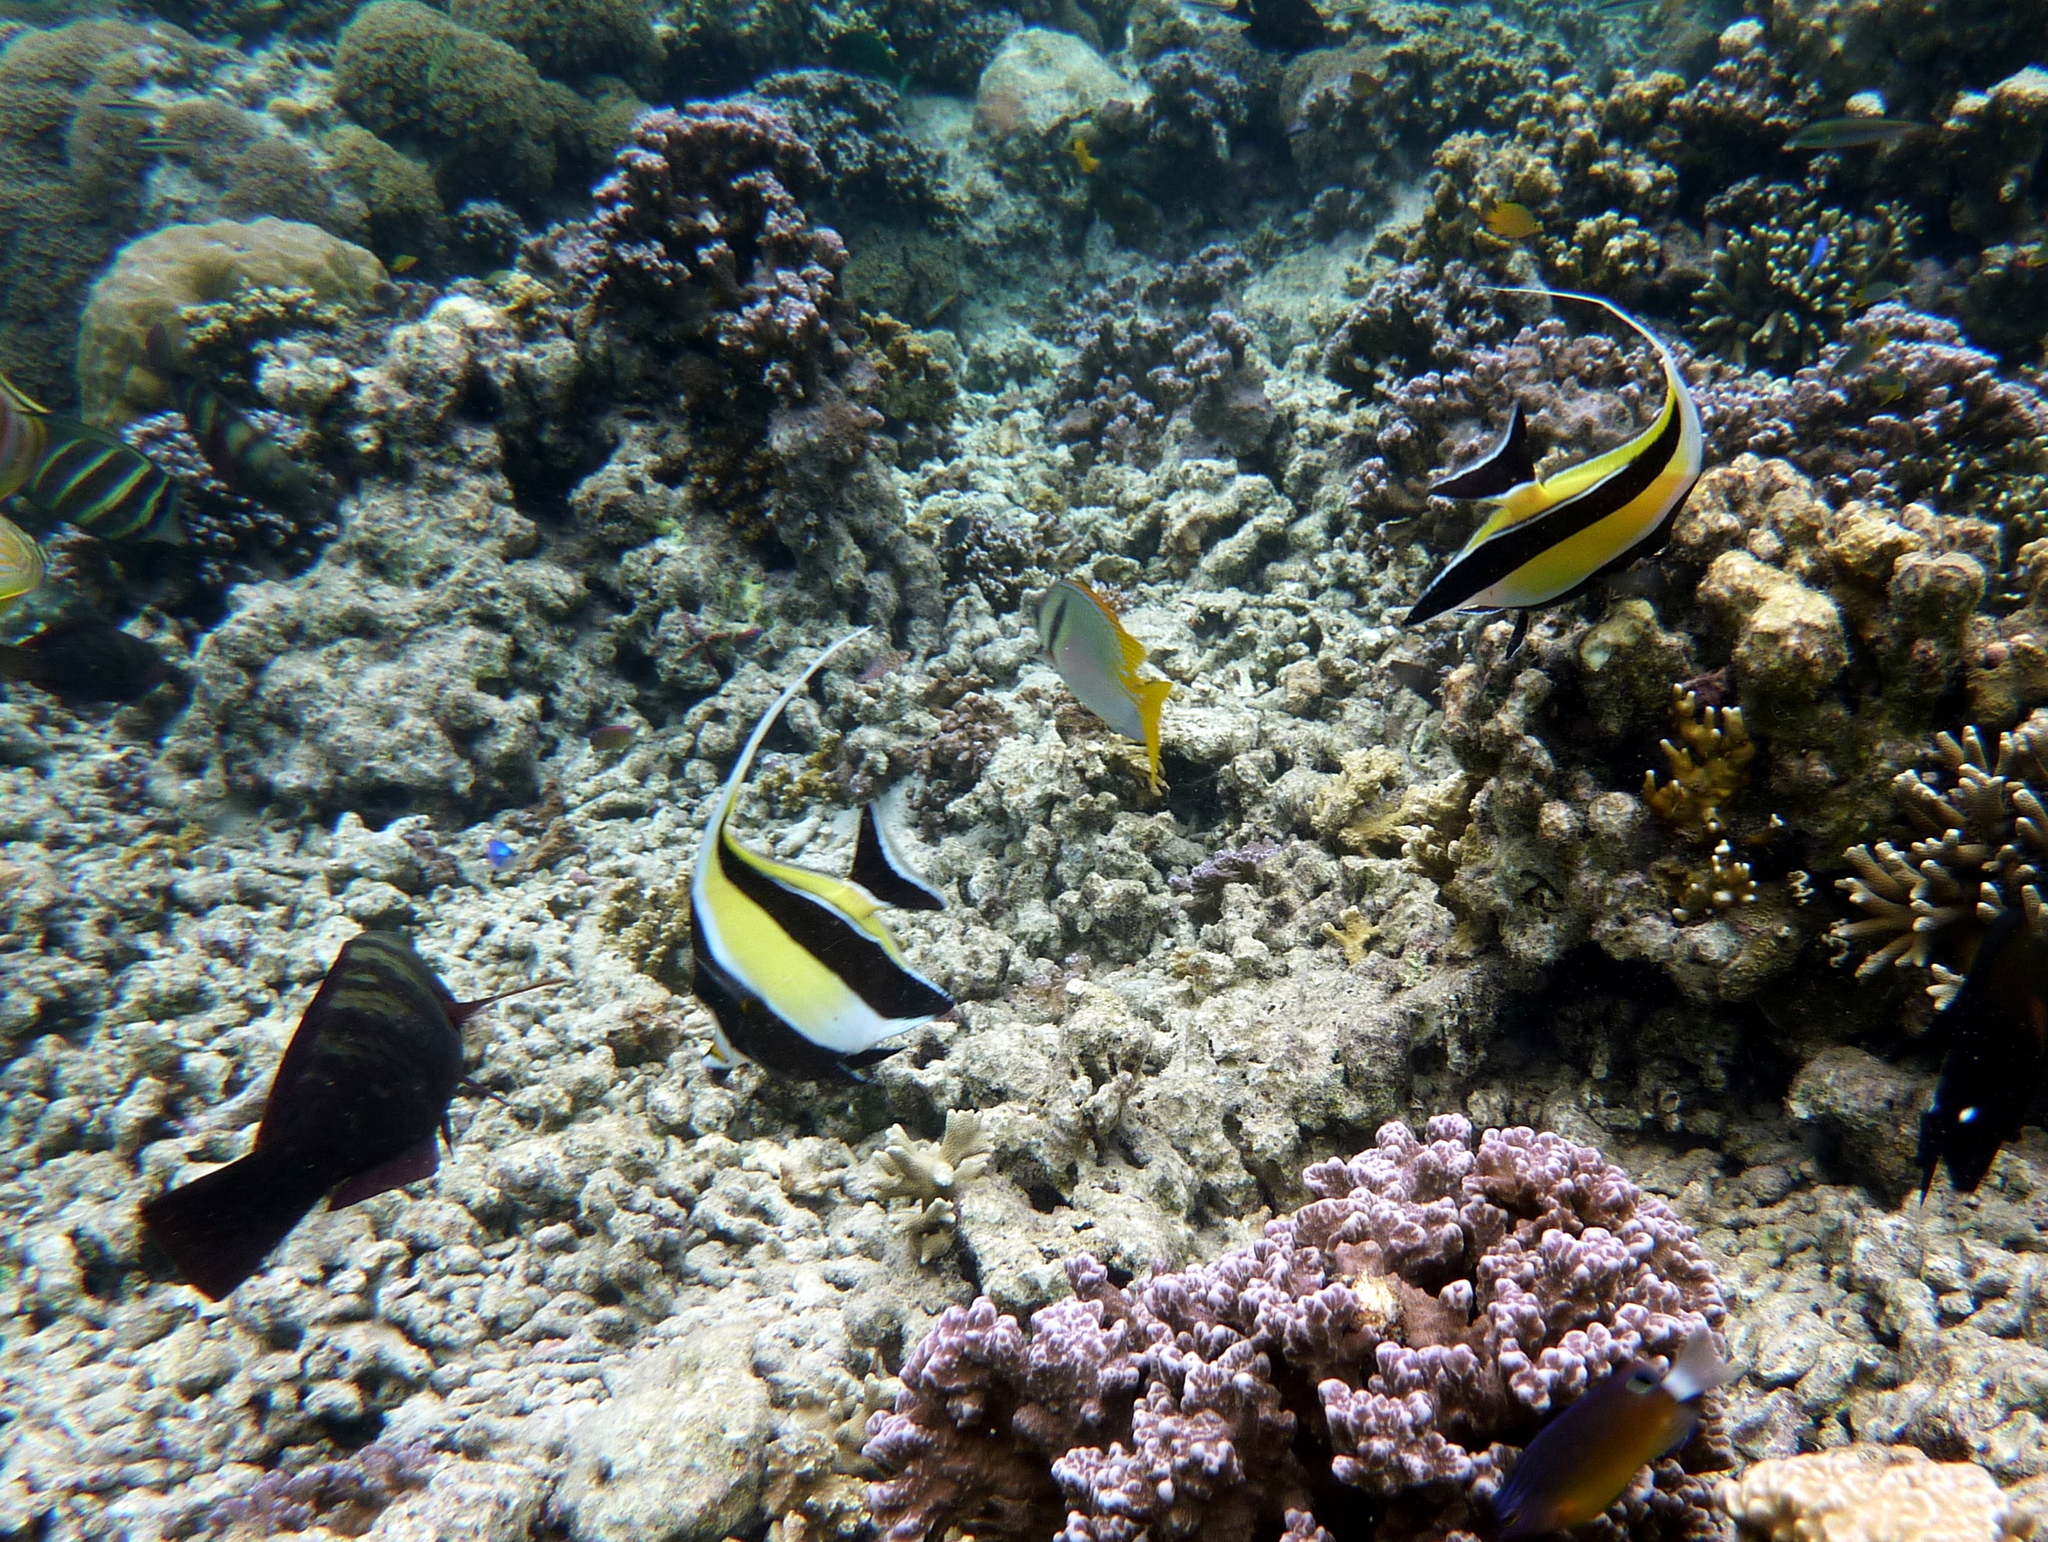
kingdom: Animalia
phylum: Chordata
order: Perciformes
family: Zanclidae
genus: Zanclus
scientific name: Zanclus cornutus
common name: Moorish idol
